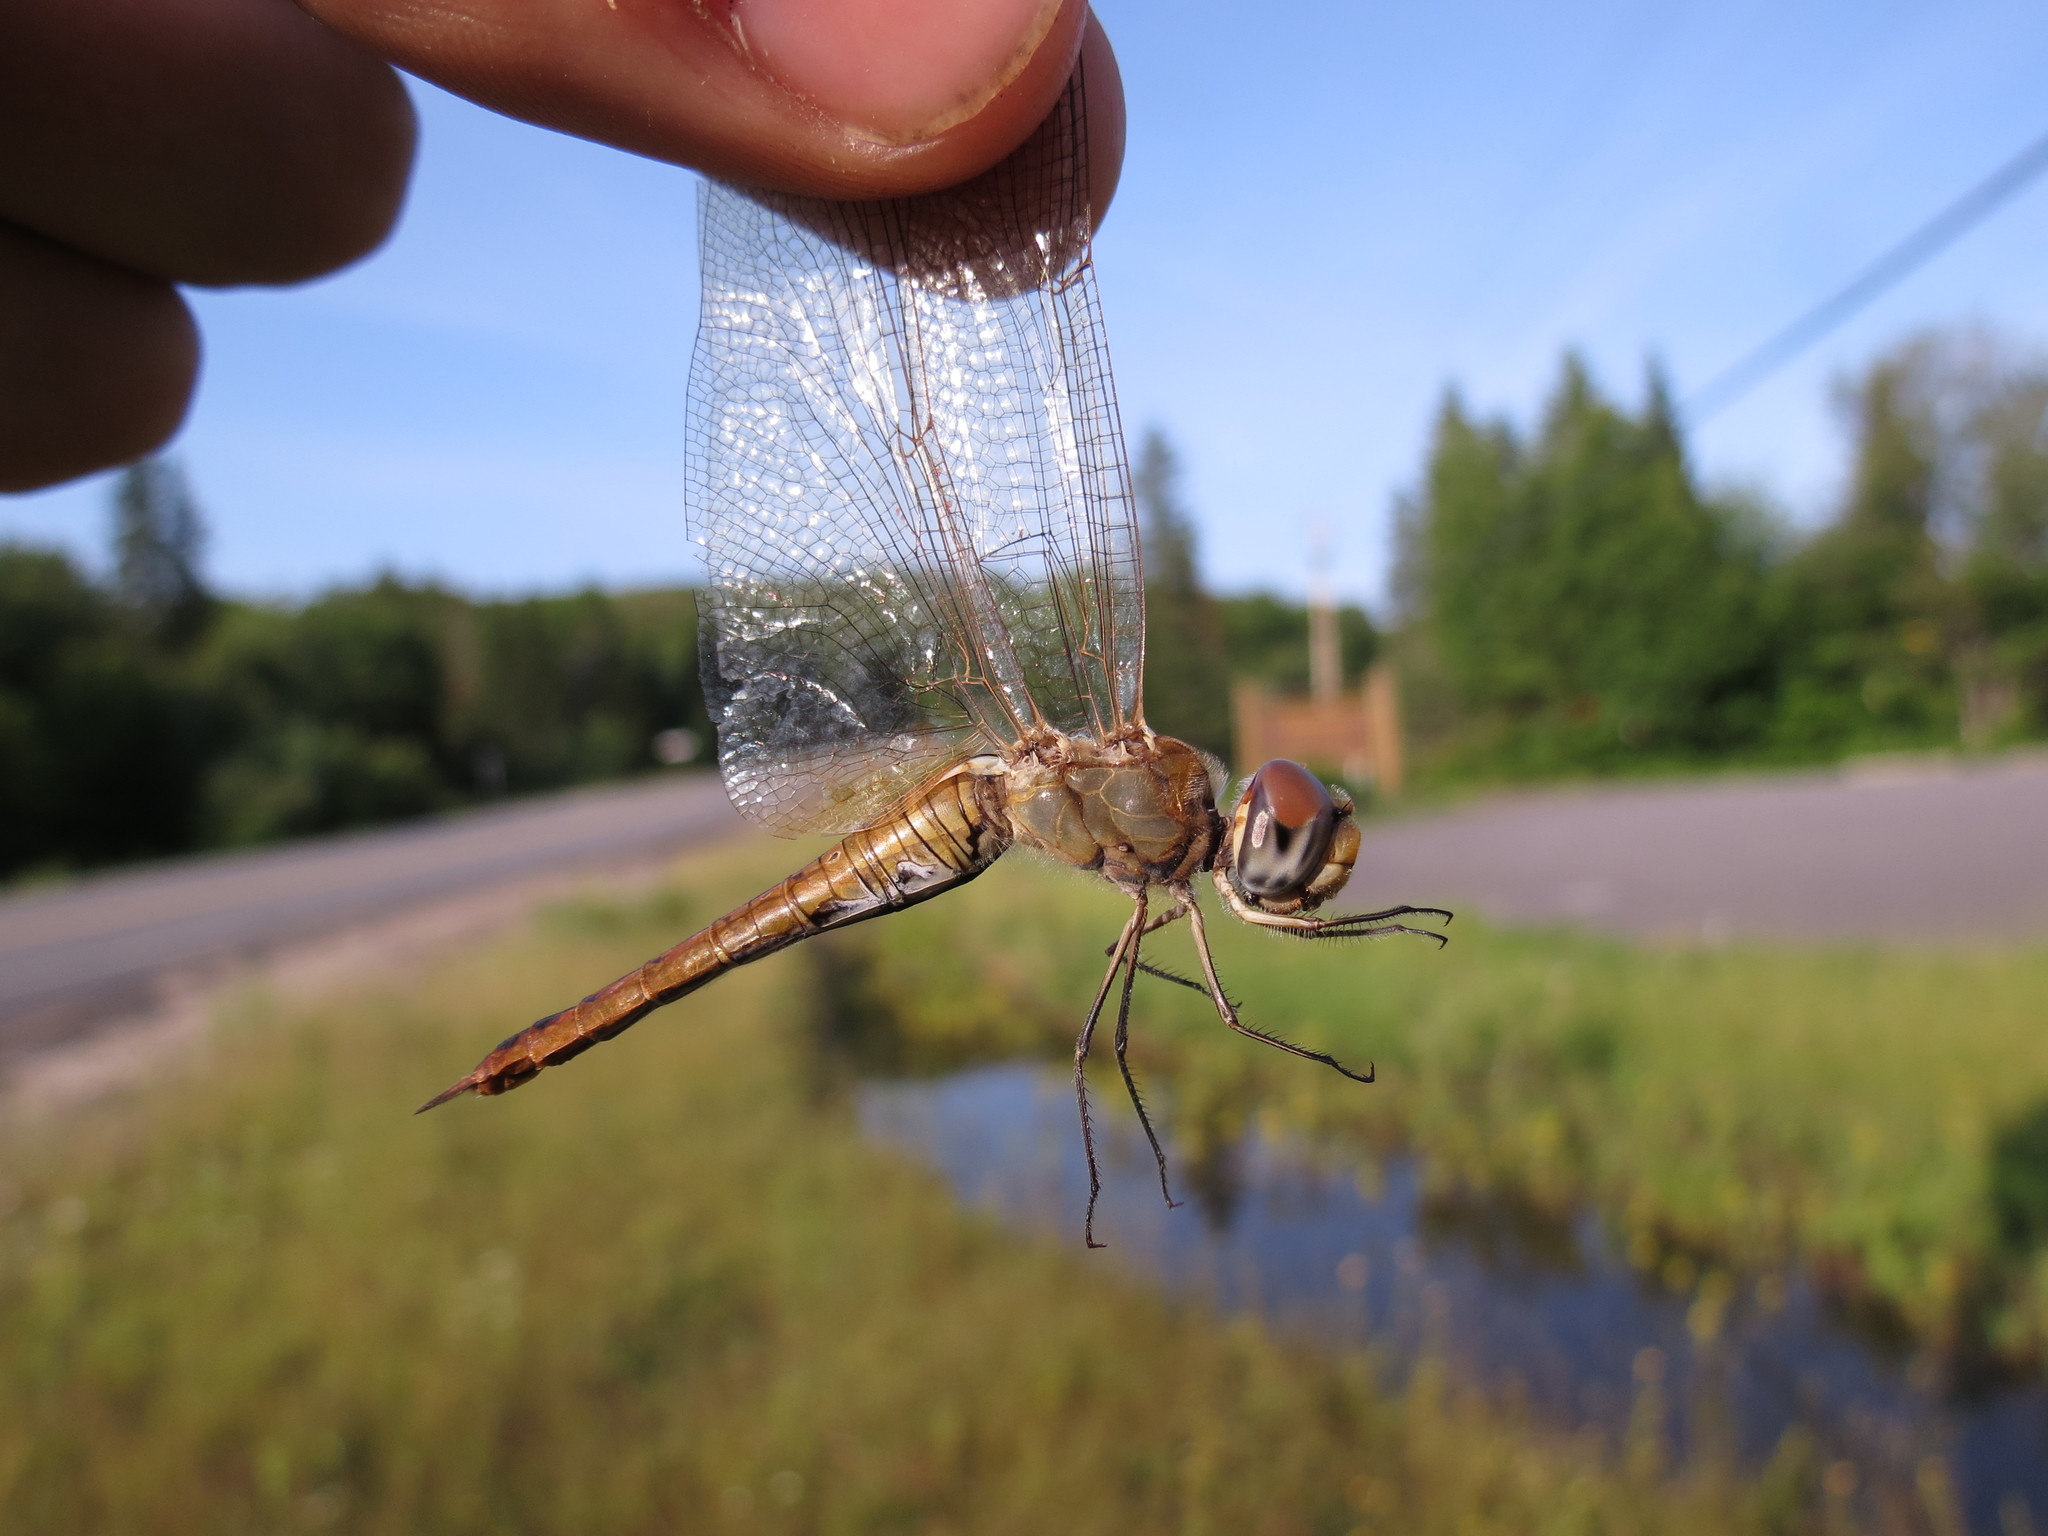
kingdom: Animalia
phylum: Arthropoda
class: Insecta
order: Odonata
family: Libellulidae
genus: Pantala
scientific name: Pantala flavescens
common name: Wandering glider
